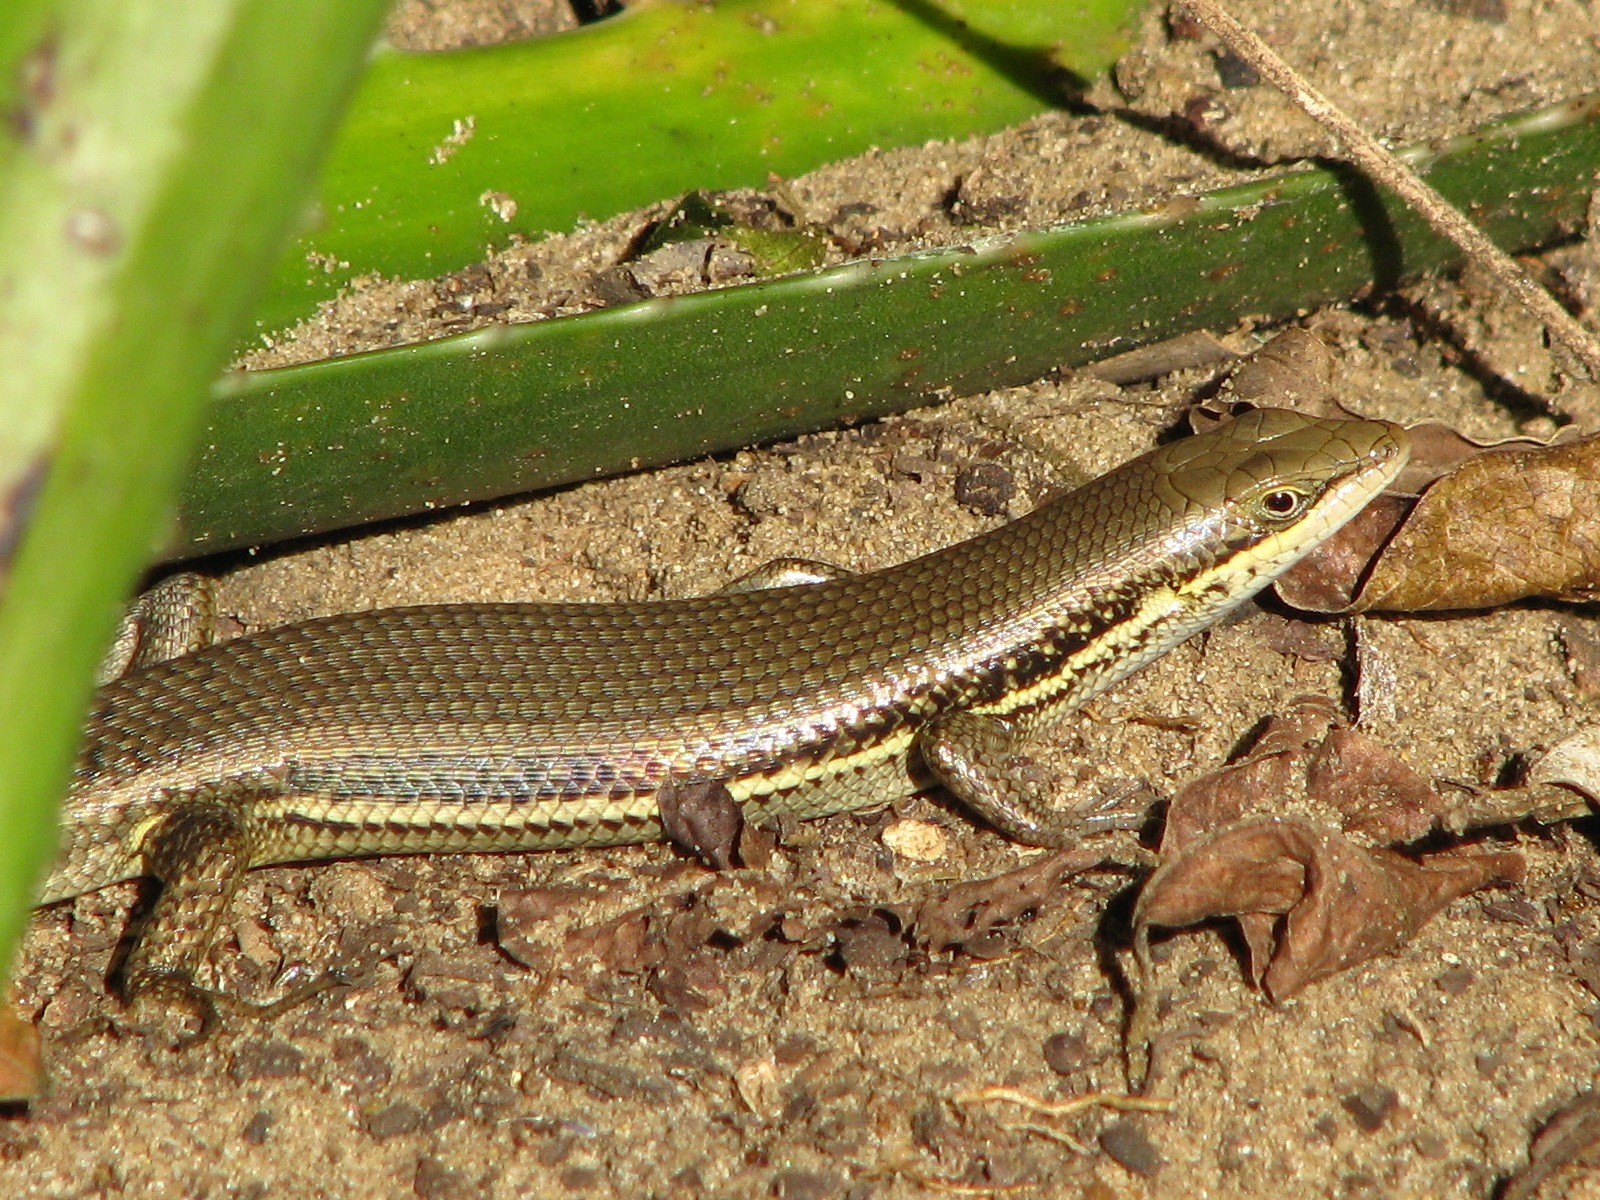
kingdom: Animalia
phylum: Chordata
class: Squamata
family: Scincidae
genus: Trachylepis
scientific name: Trachylepis depressa
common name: Eastern coastal skink
